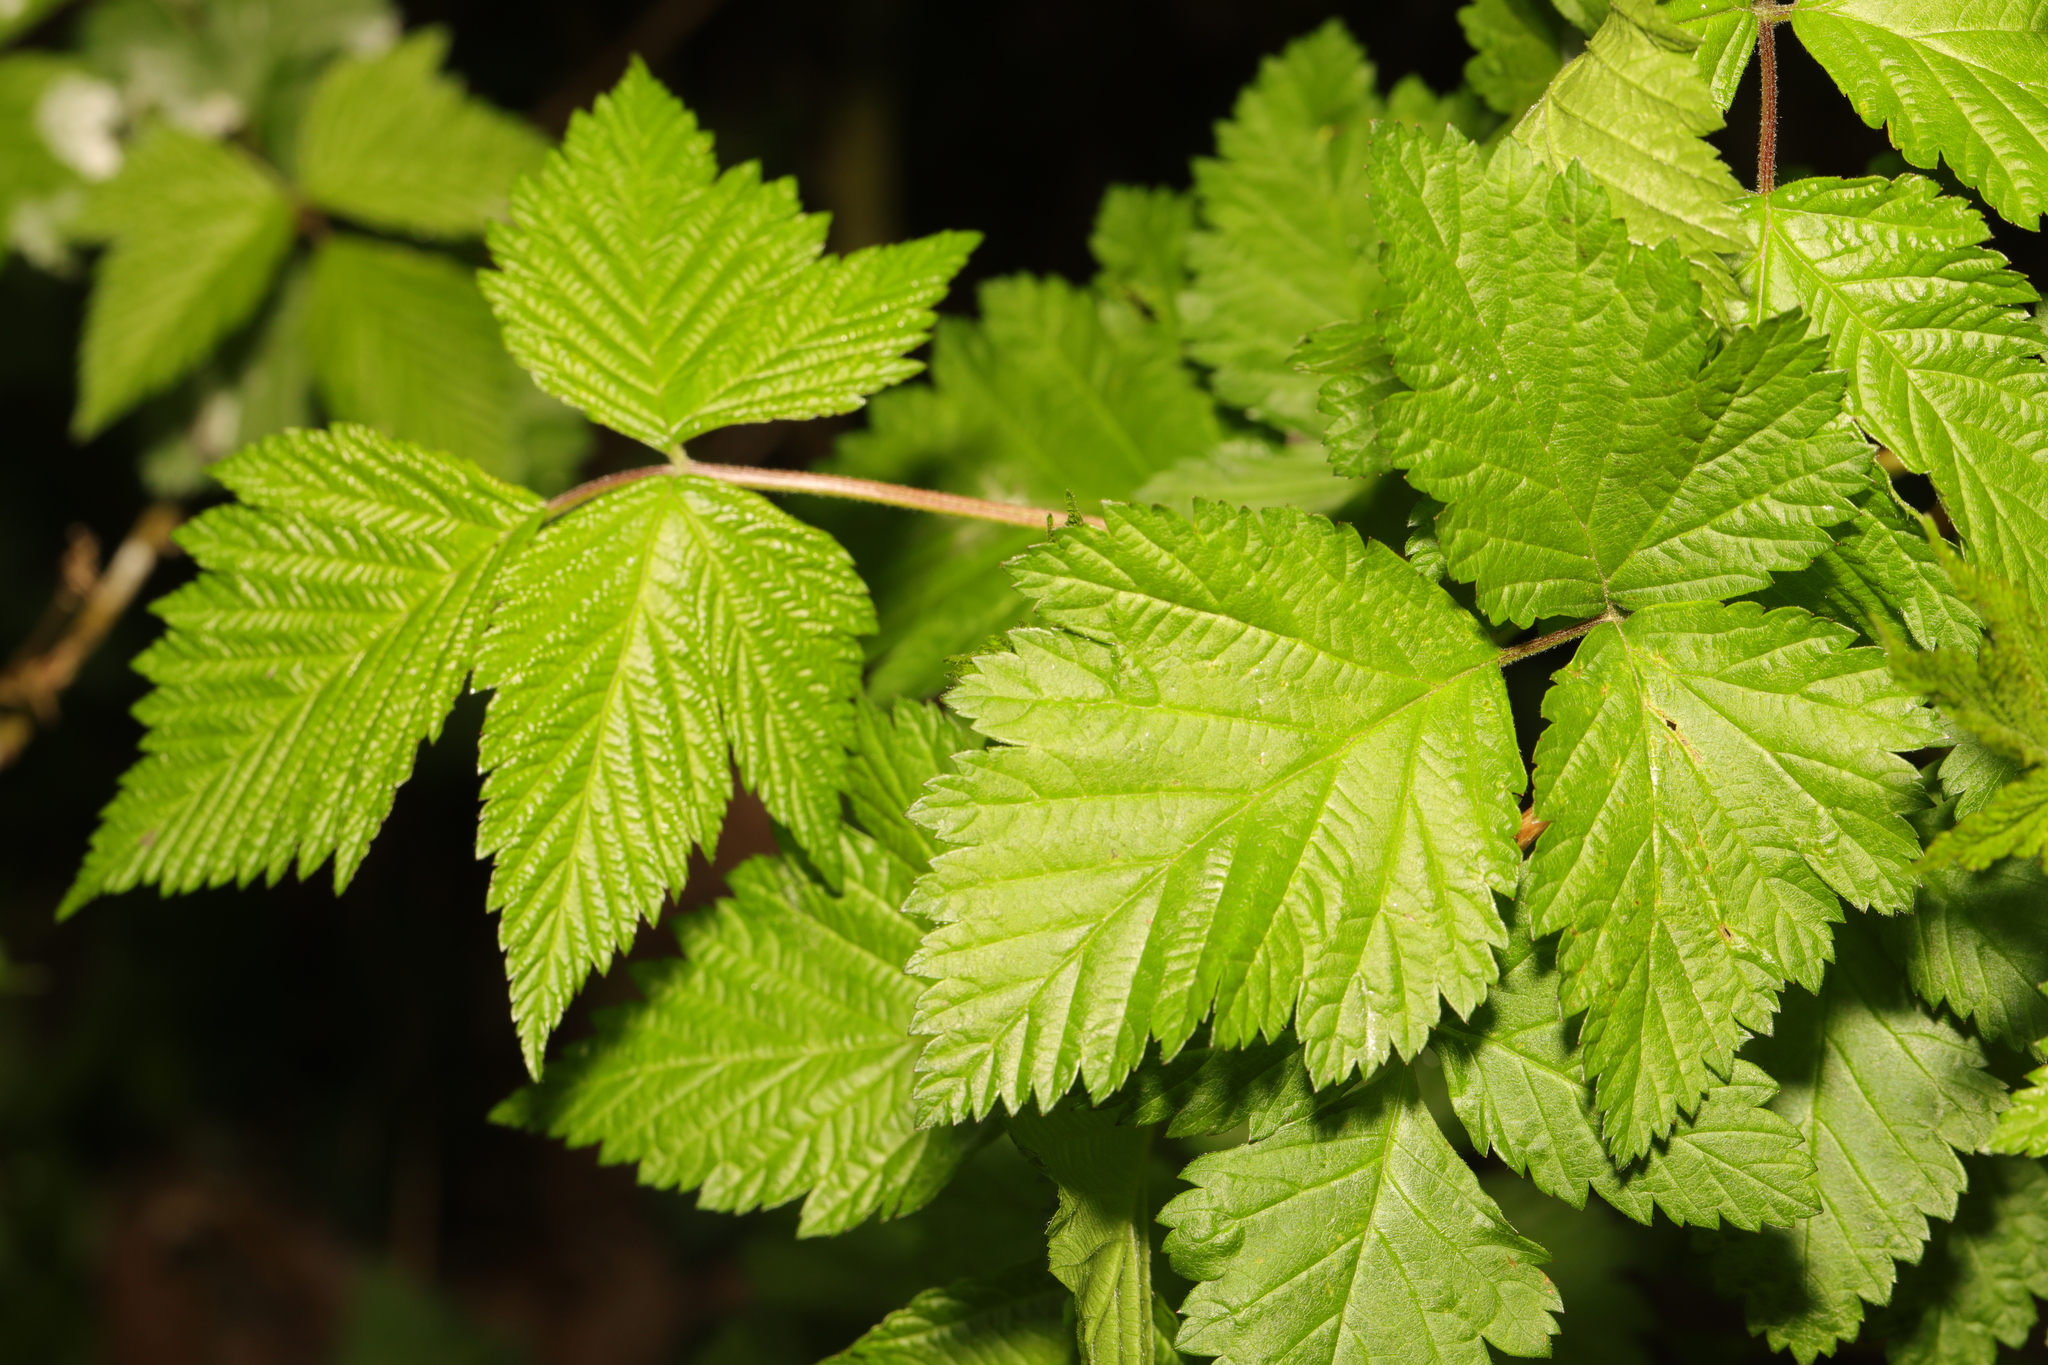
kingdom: Plantae
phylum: Tracheophyta
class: Magnoliopsida
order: Rosales
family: Rosaceae
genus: Rubus
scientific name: Rubus spectabilis
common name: Salmonberry
